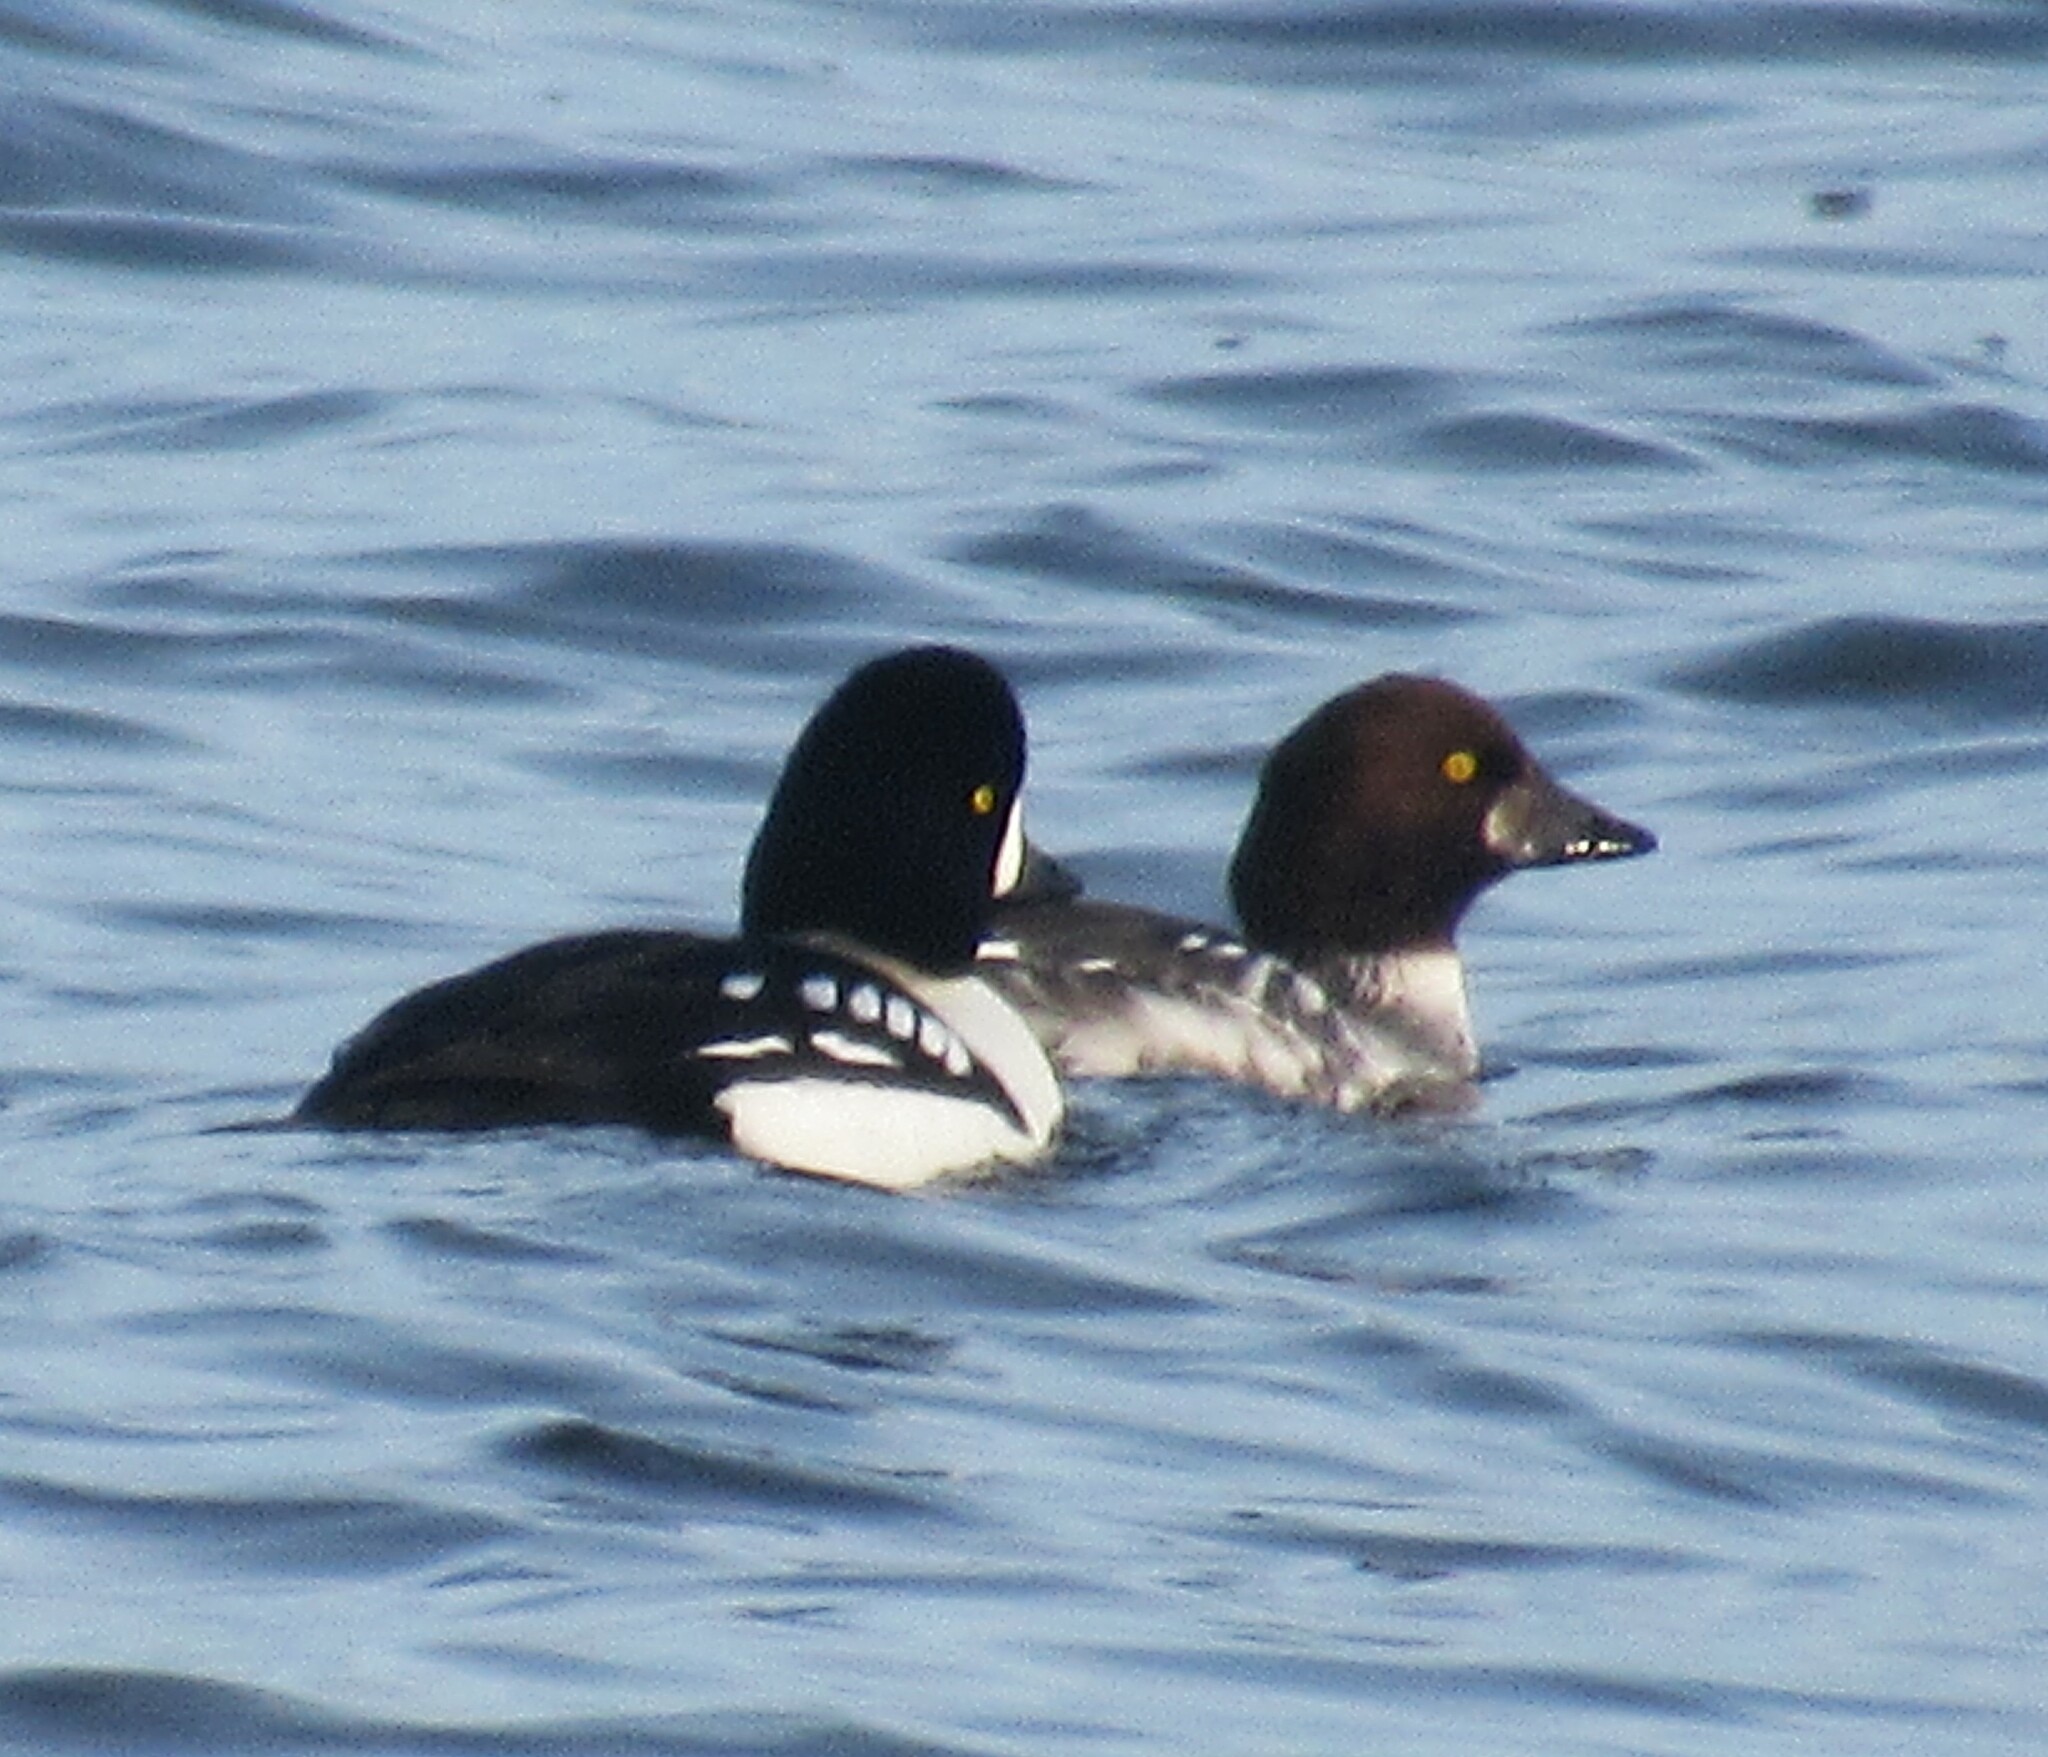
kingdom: Animalia
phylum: Chordata
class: Aves
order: Anseriformes
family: Anatidae
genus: Bucephala
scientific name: Bucephala islandica
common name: Barrow's goldeneye
